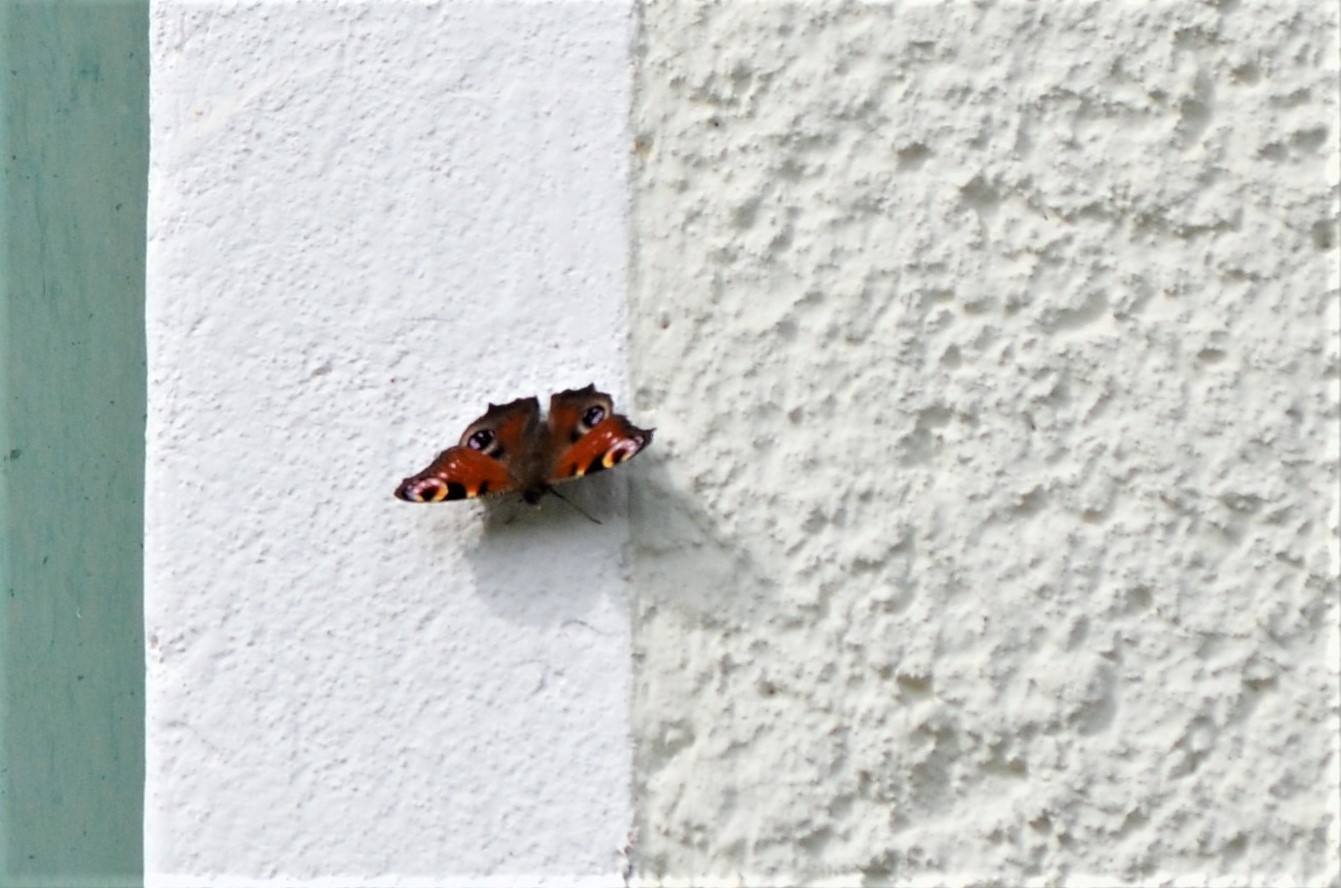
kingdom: Animalia
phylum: Arthropoda
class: Insecta
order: Lepidoptera
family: Nymphalidae
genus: Aglais
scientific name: Aglais io
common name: Peacock
